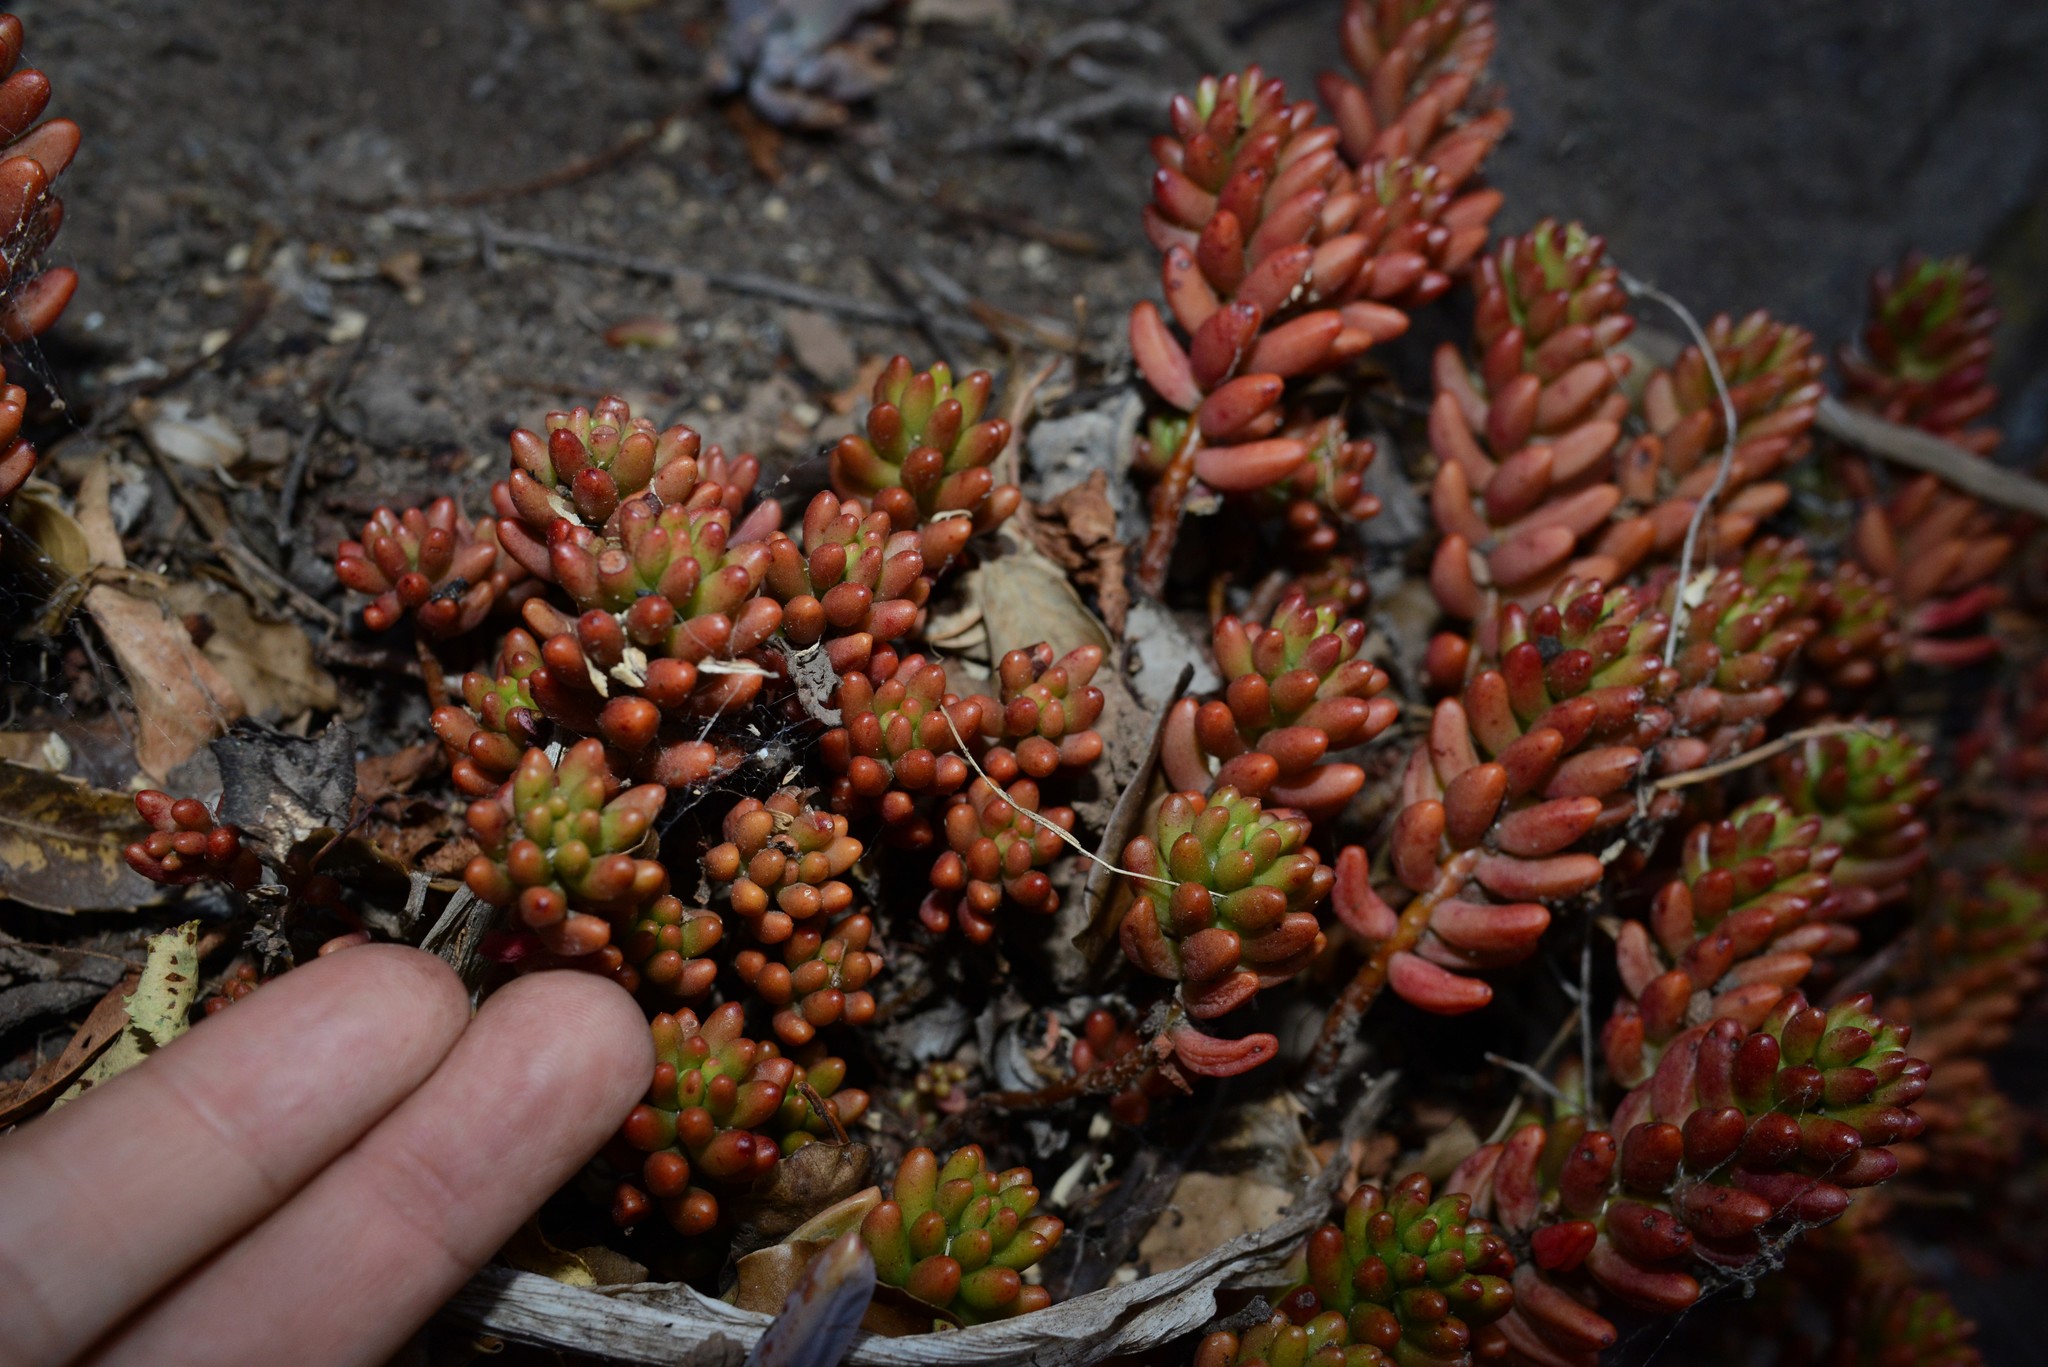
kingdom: Plantae
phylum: Tracheophyta
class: Magnoliopsida
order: Saxifragales
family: Crassulaceae
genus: Sedum
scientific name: Sedum rubrotinctum
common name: Christmas-cheer
